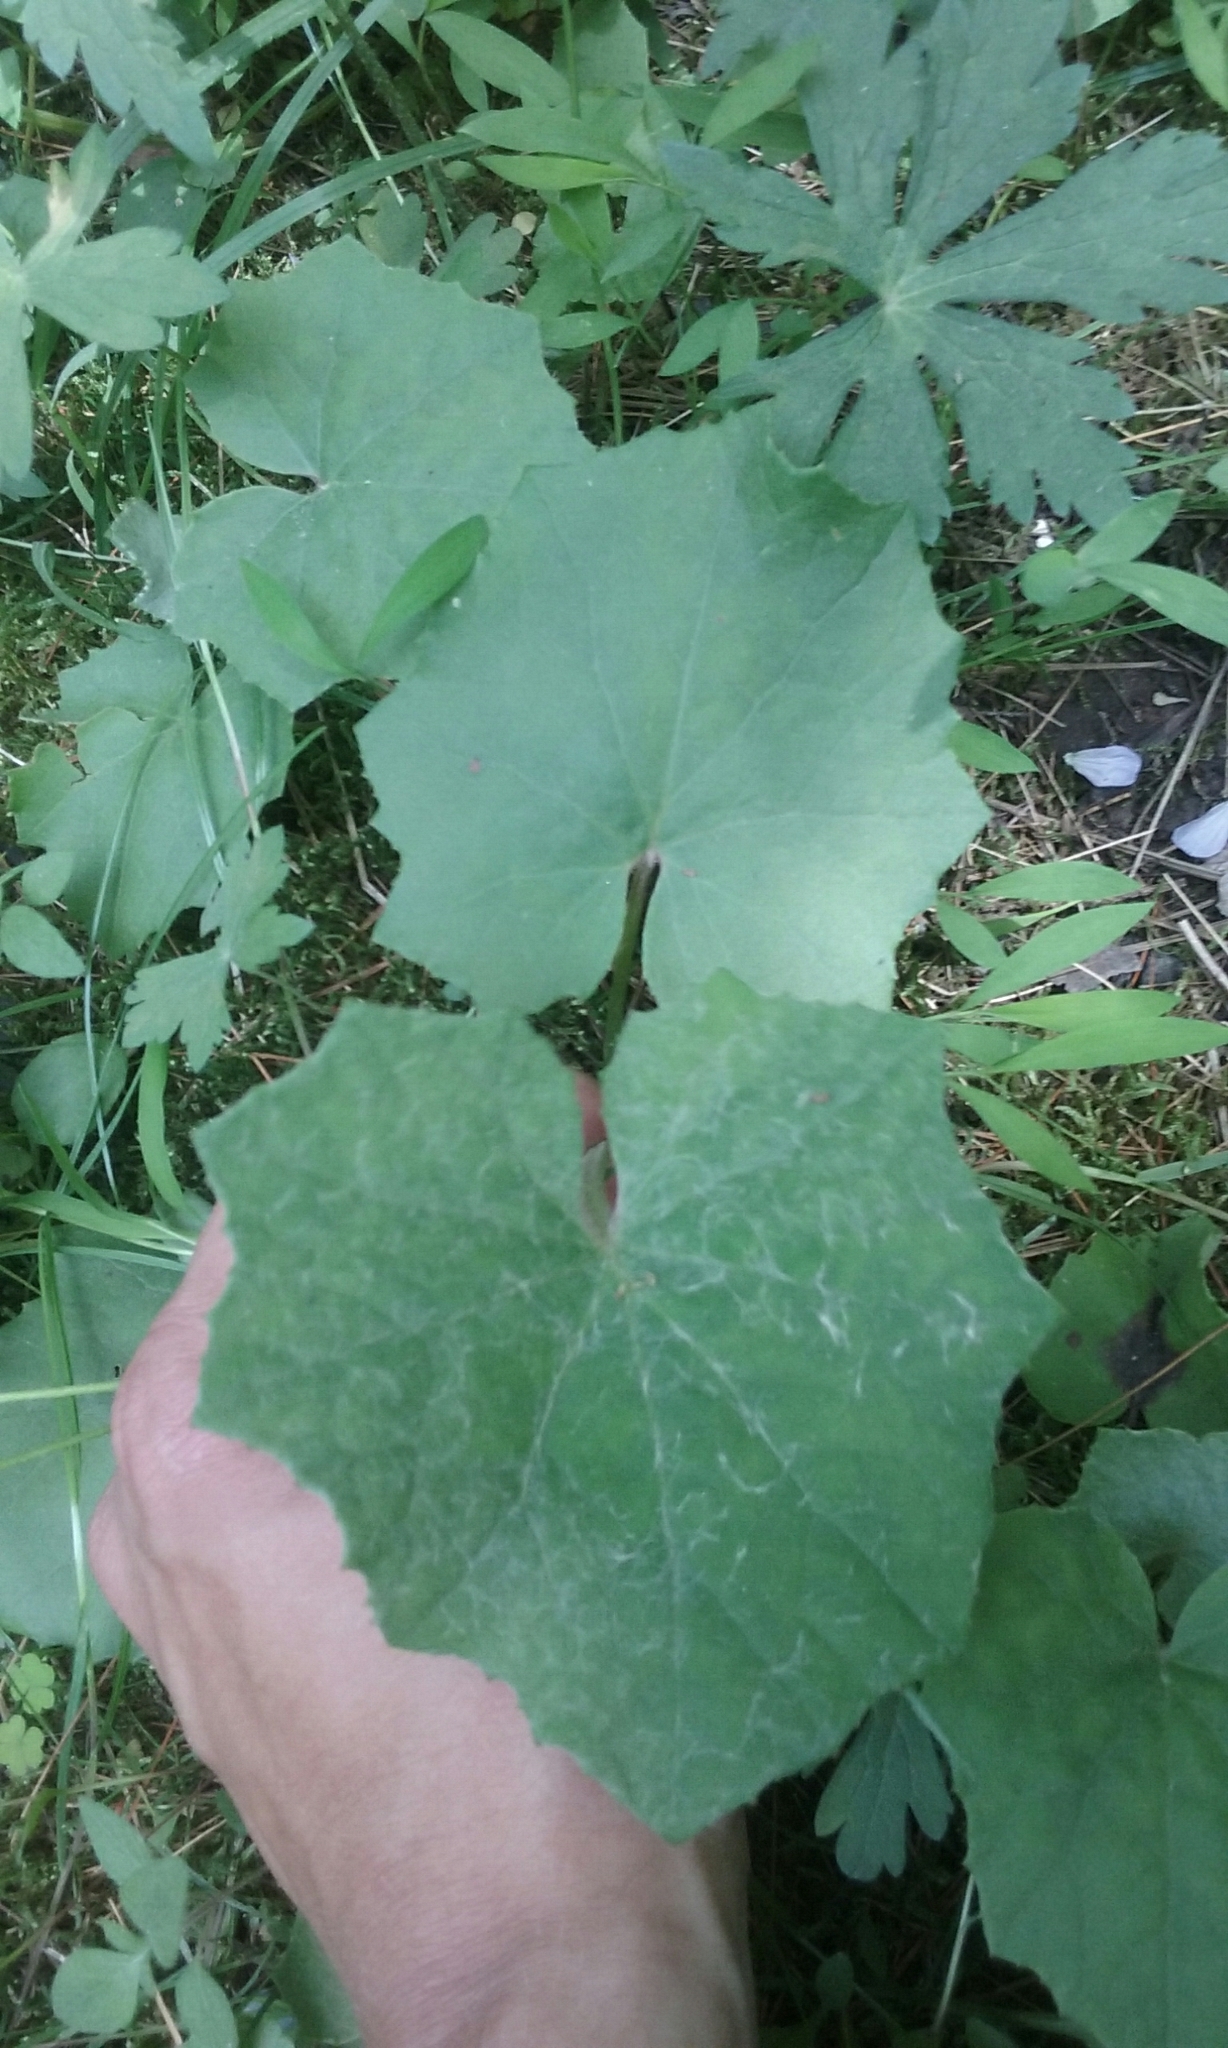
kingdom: Plantae
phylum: Tracheophyta
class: Magnoliopsida
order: Asterales
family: Asteraceae
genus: Tussilago
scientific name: Tussilago farfara
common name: Coltsfoot
